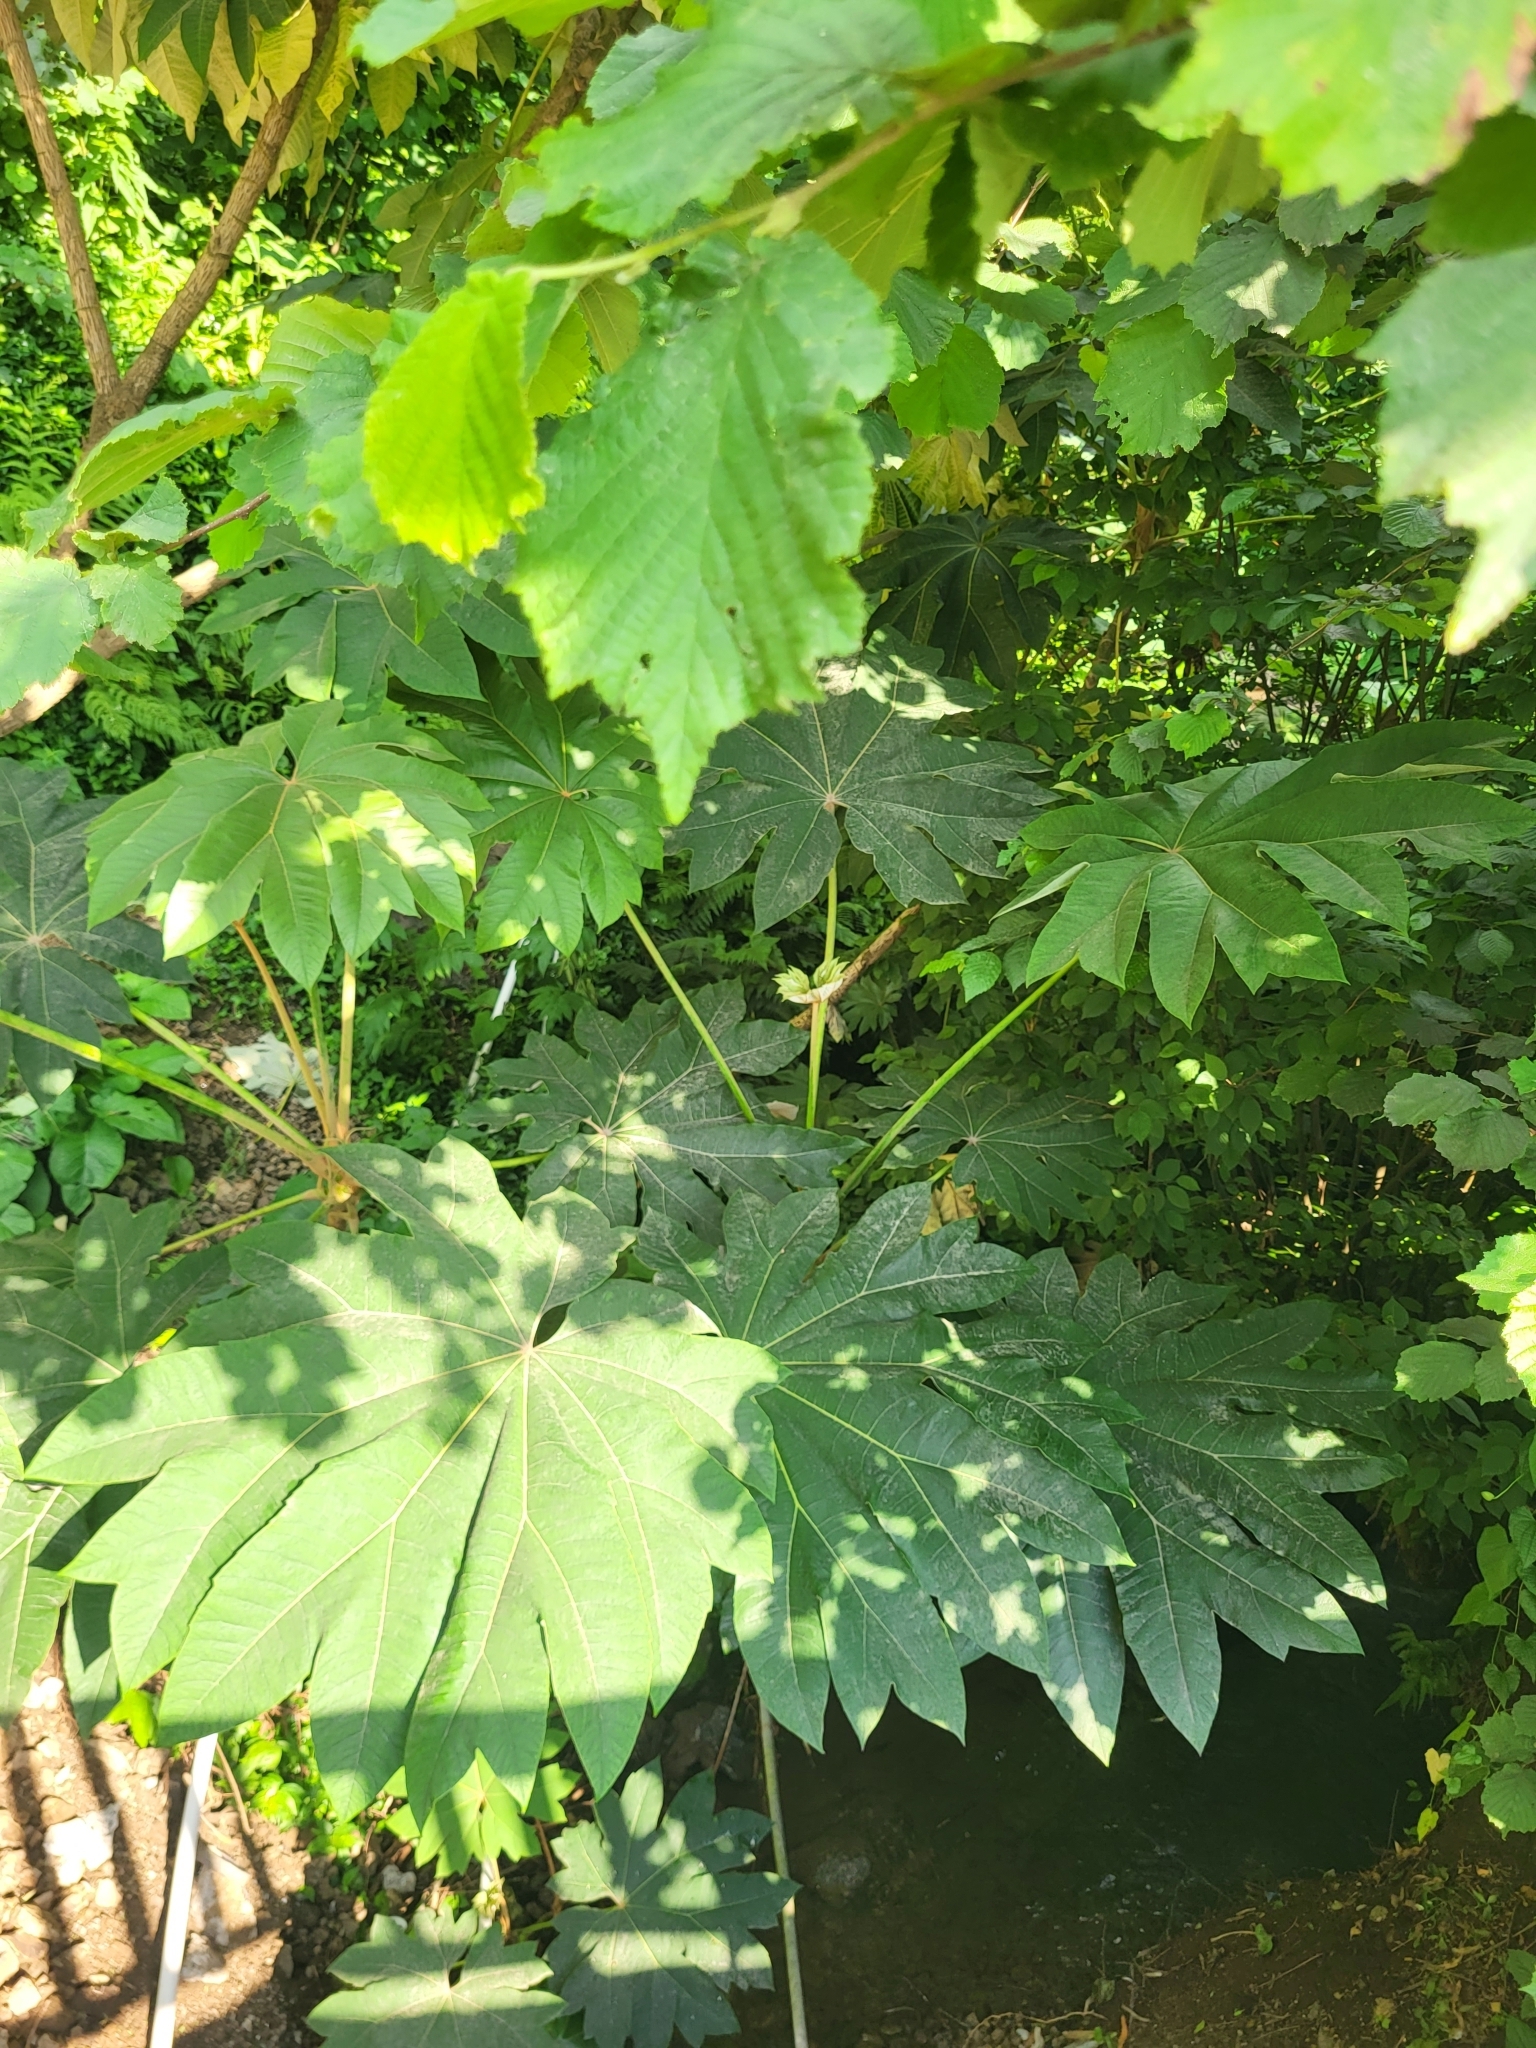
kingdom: Plantae
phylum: Tracheophyta
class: Magnoliopsida
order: Apiales
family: Araliaceae
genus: Tetrapanax
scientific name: Tetrapanax papyrifer
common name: Rice-paper plant
